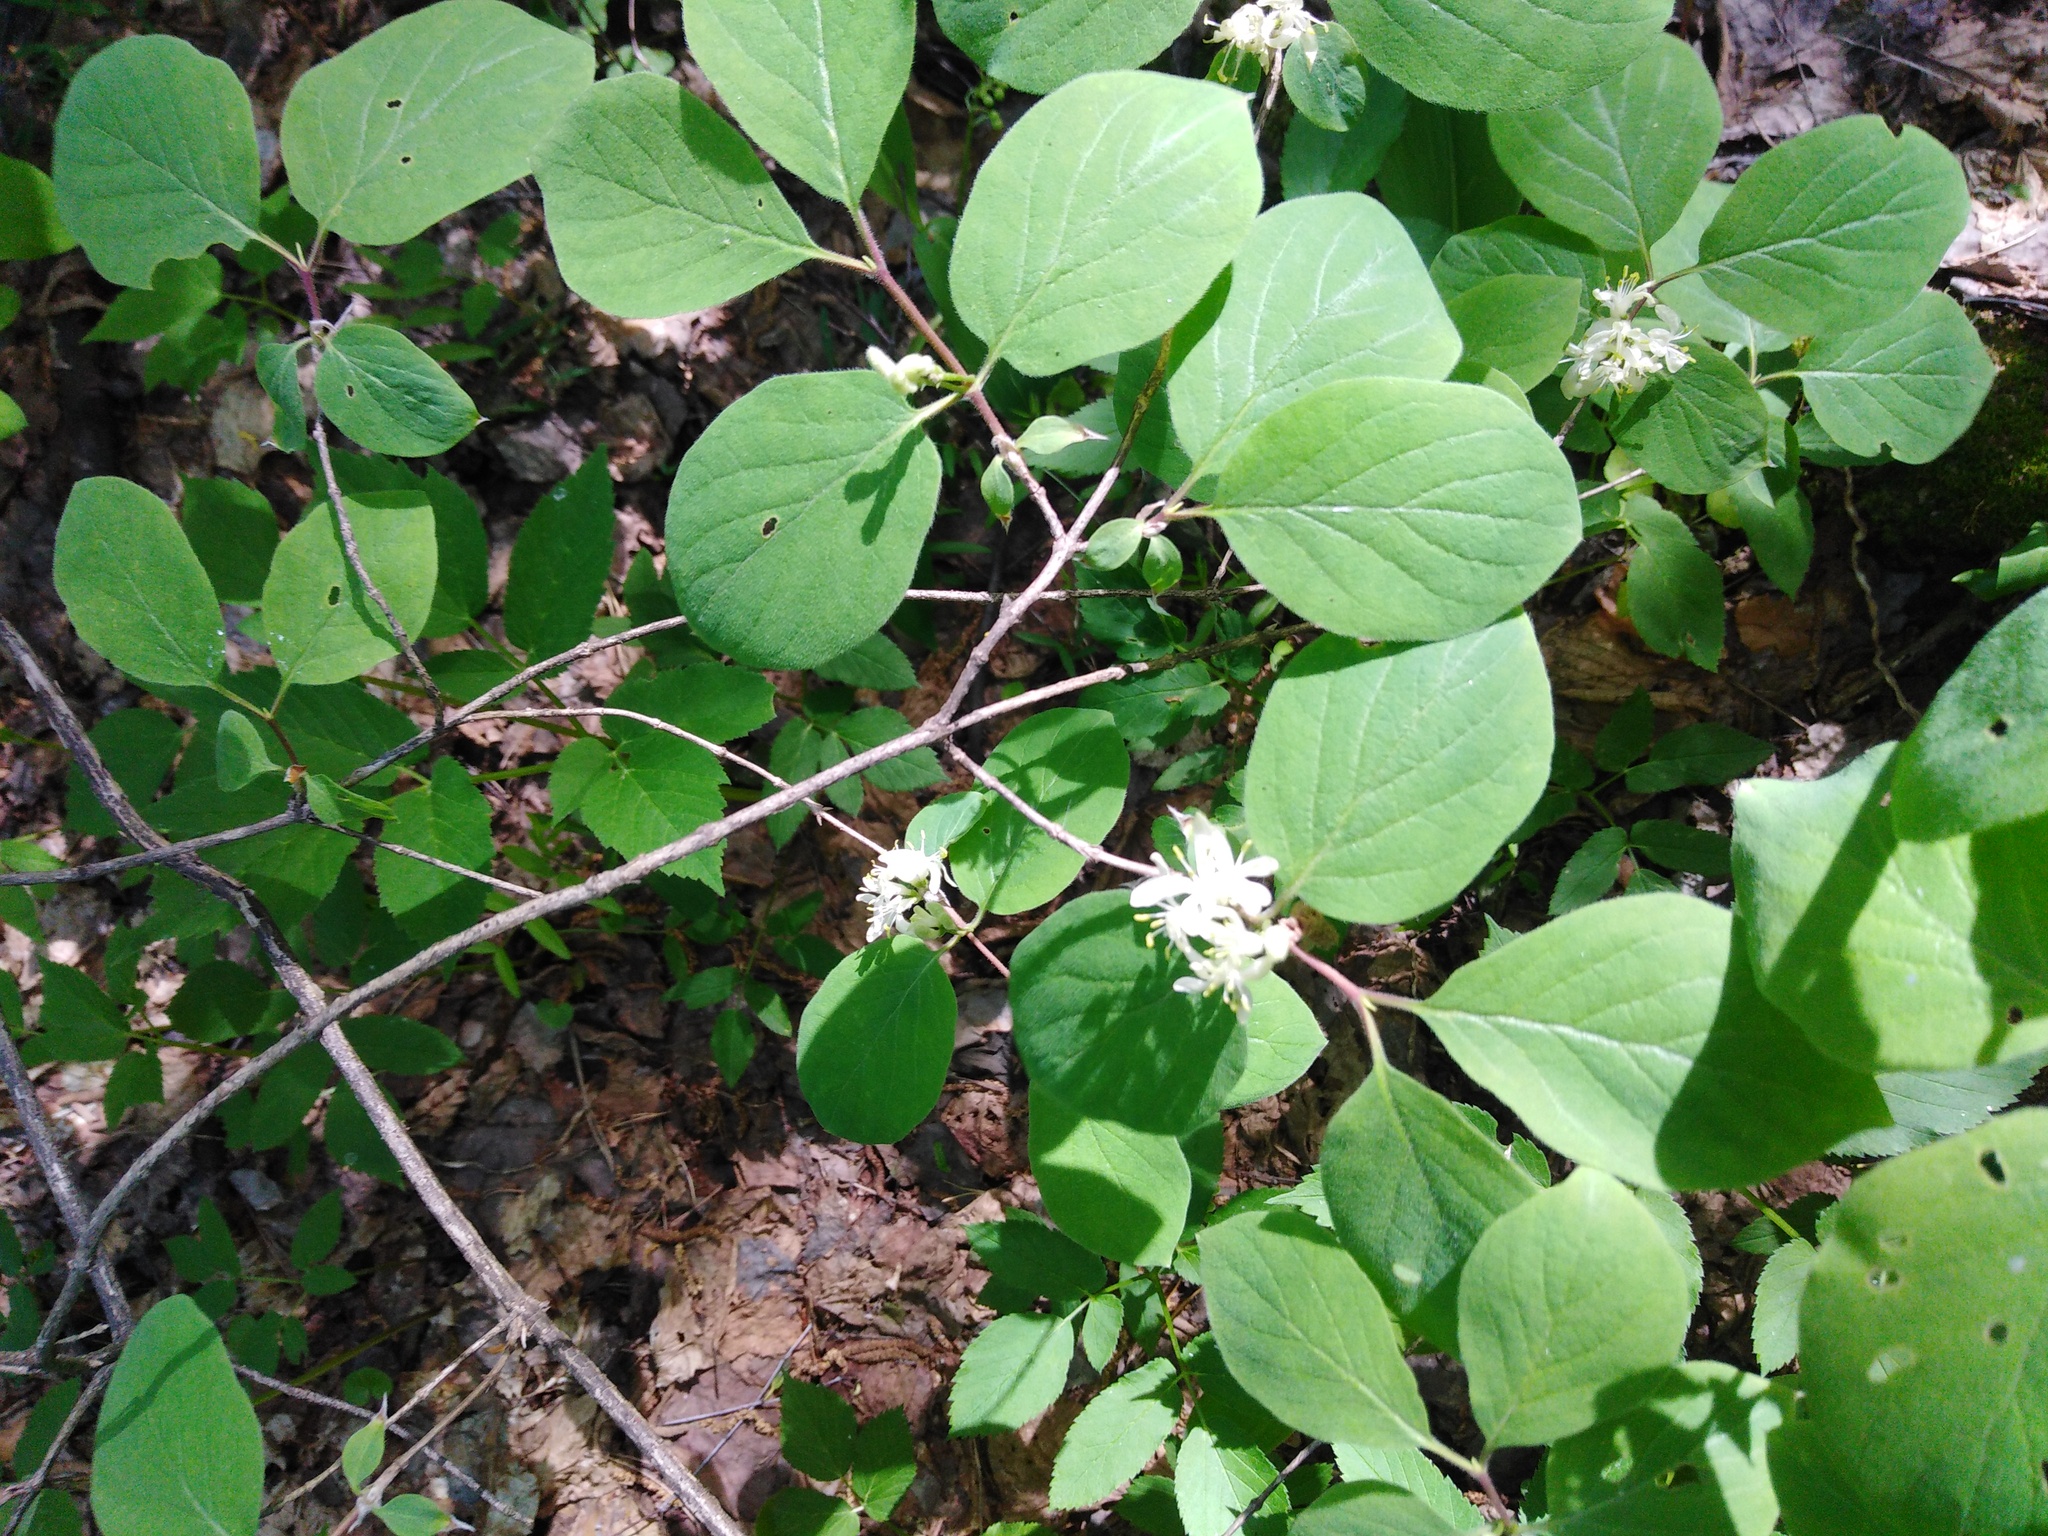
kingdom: Plantae
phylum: Tracheophyta
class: Magnoliopsida
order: Dipsacales
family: Caprifoliaceae
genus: Lonicera
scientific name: Lonicera xylosteum
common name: Fly honeysuckle
